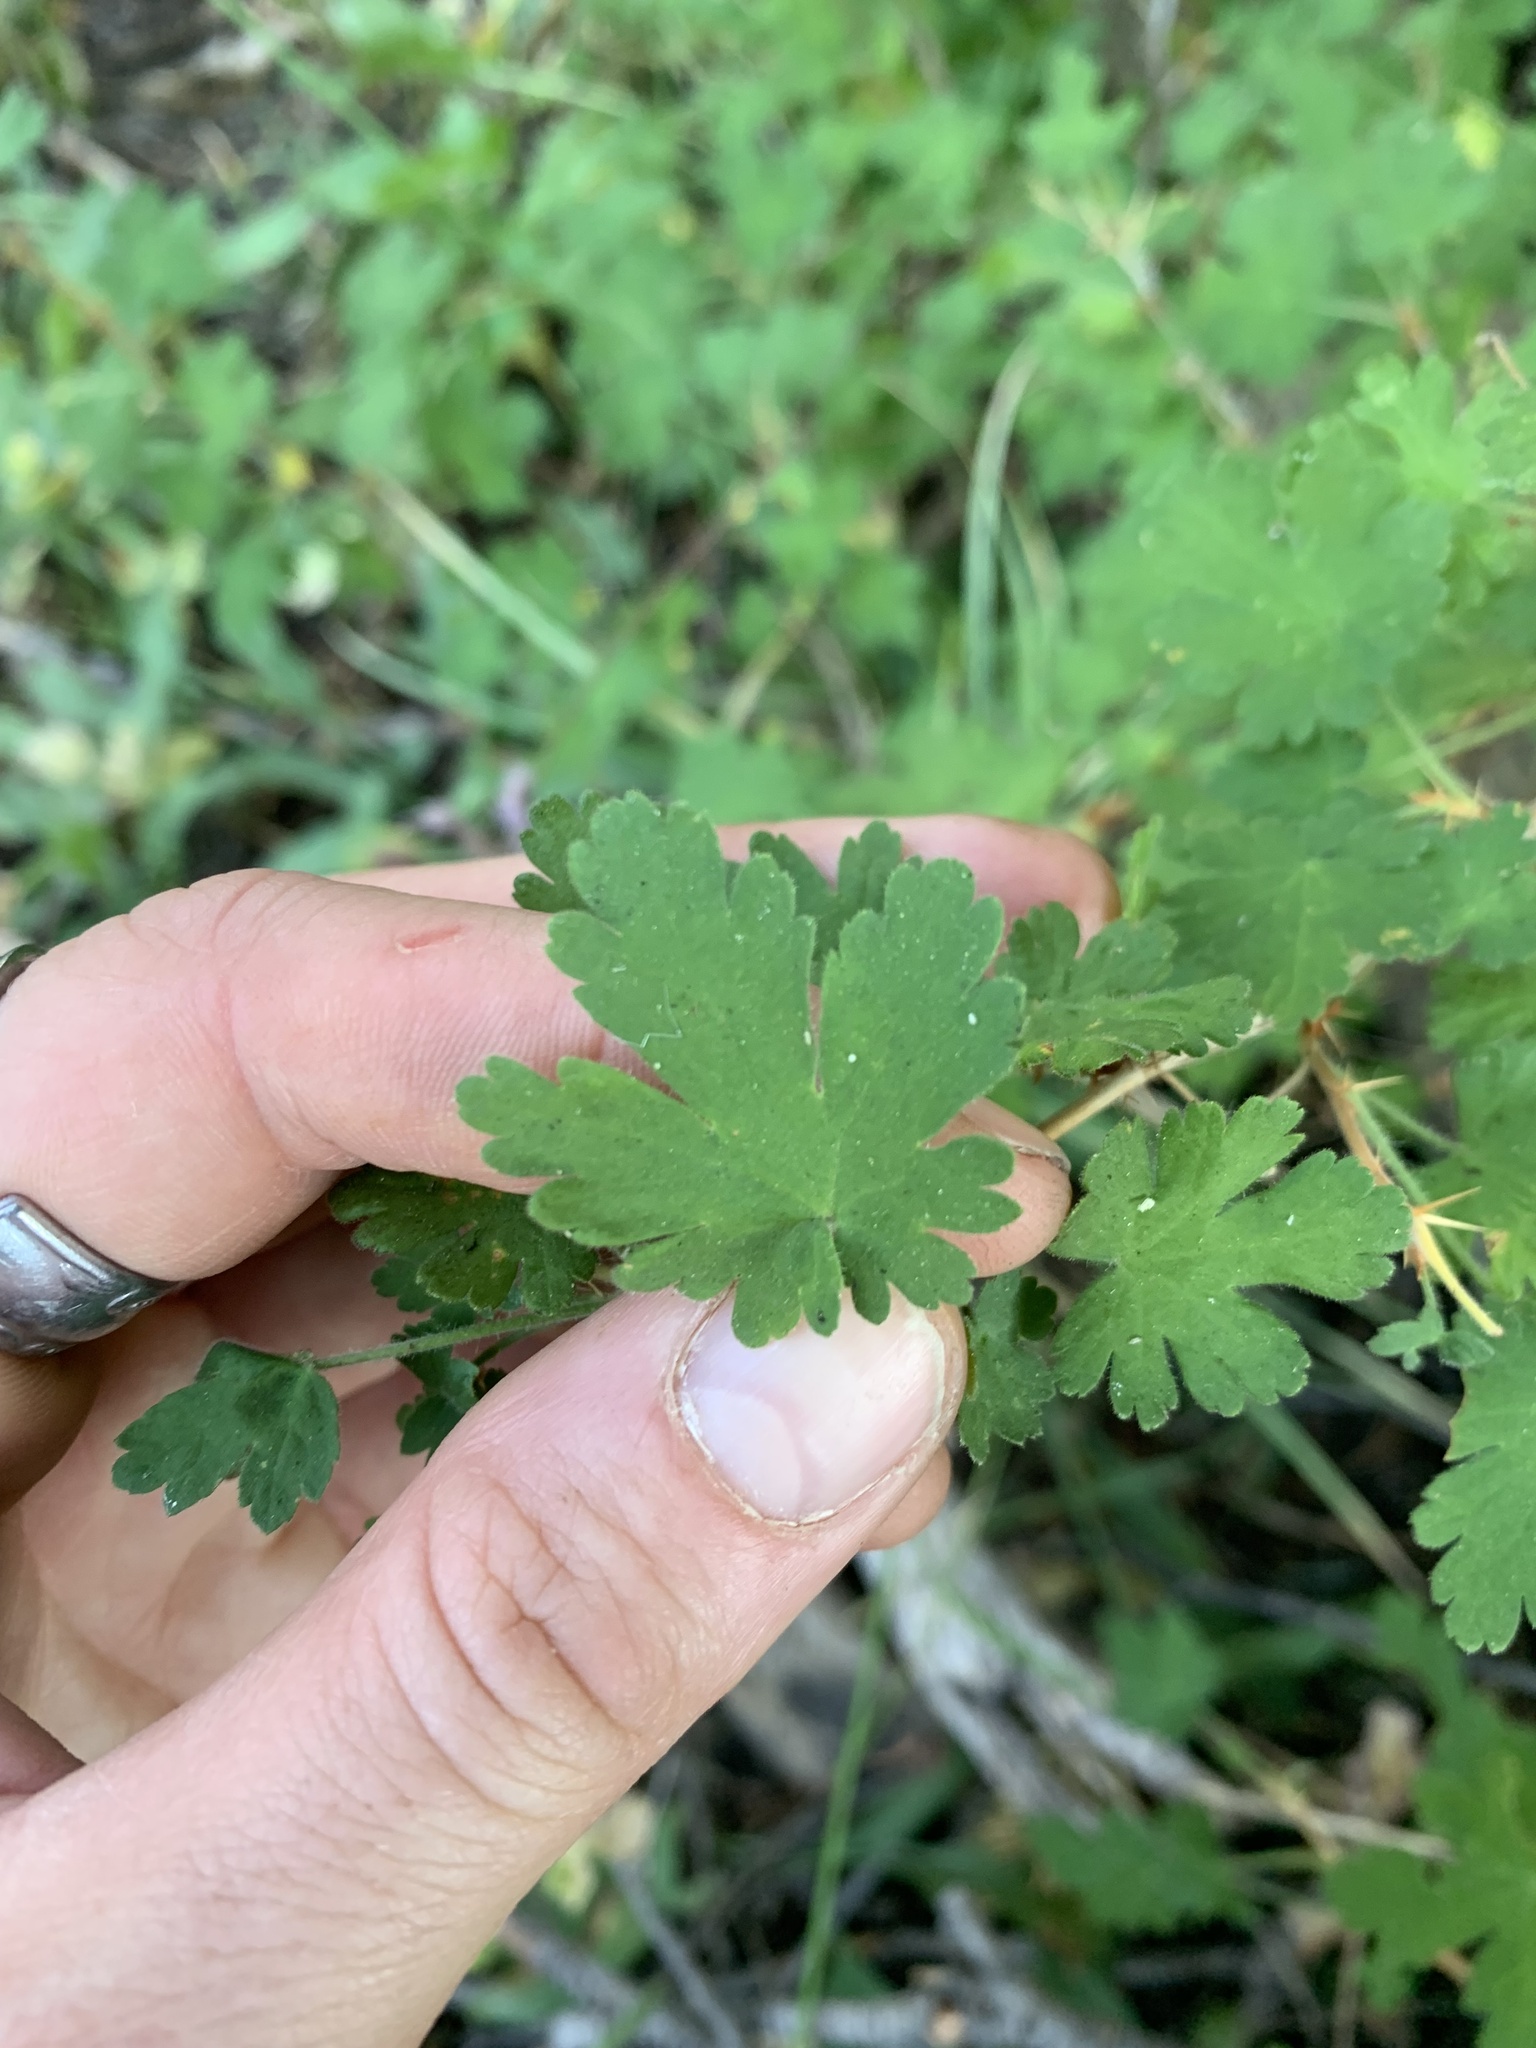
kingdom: Plantae
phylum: Tracheophyta
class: Magnoliopsida
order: Saxifragales
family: Grossulariaceae
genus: Ribes
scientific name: Ribes montigenum
